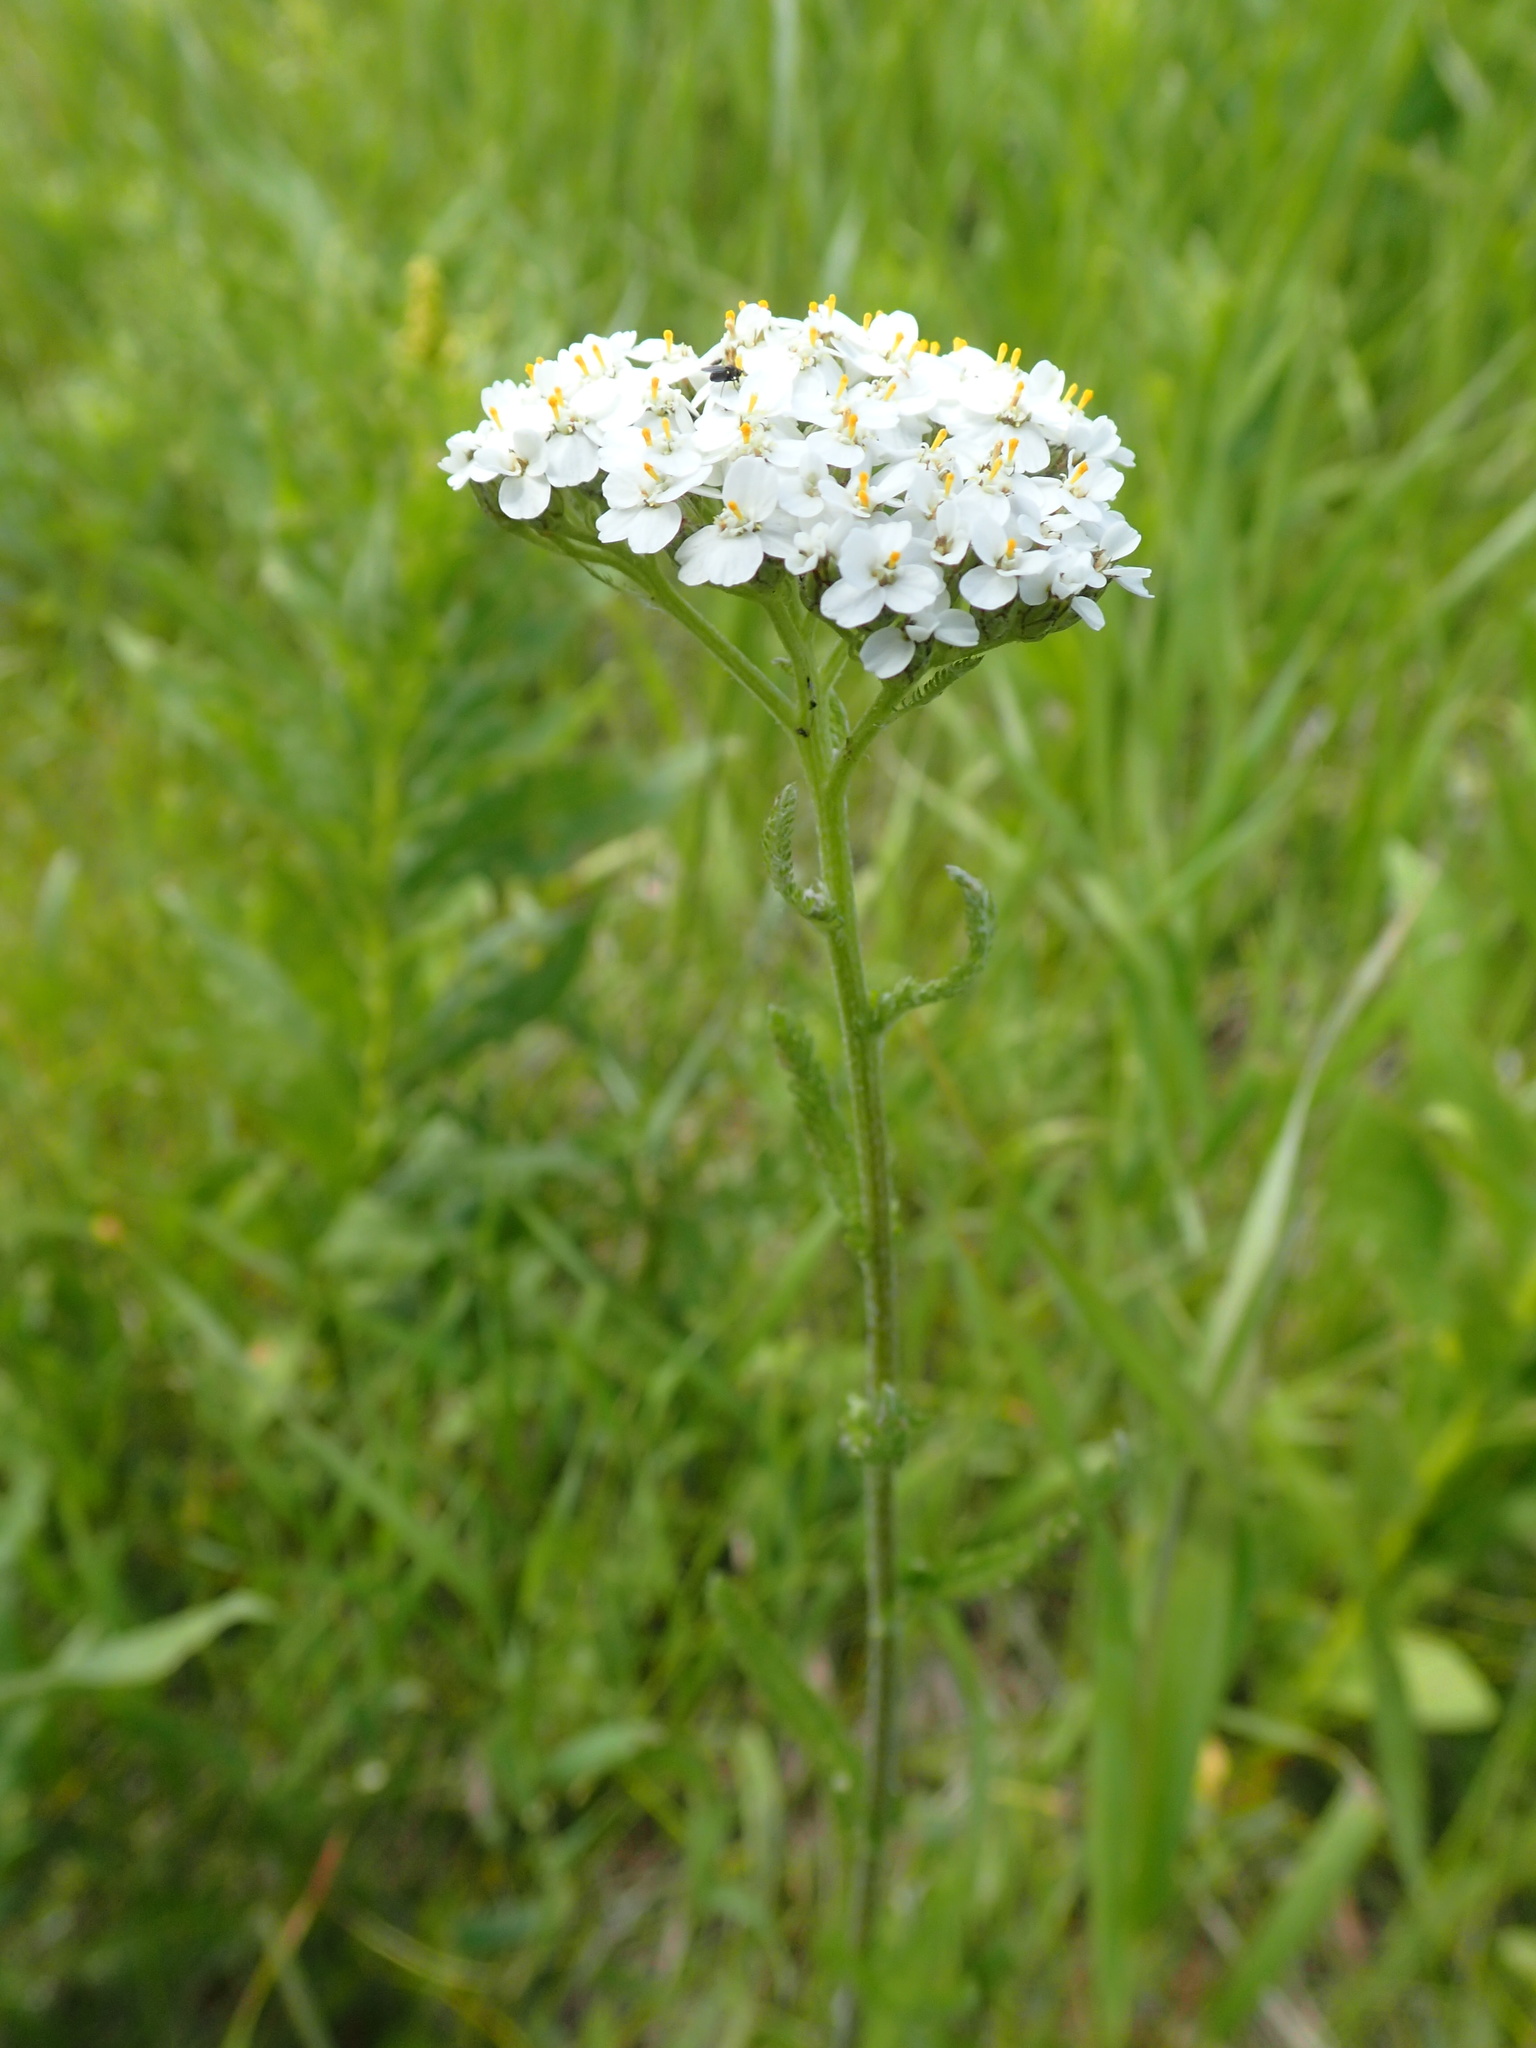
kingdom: Plantae
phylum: Tracheophyta
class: Magnoliopsida
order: Asterales
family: Asteraceae
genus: Achillea
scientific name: Achillea millefolium
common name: Yarrow
